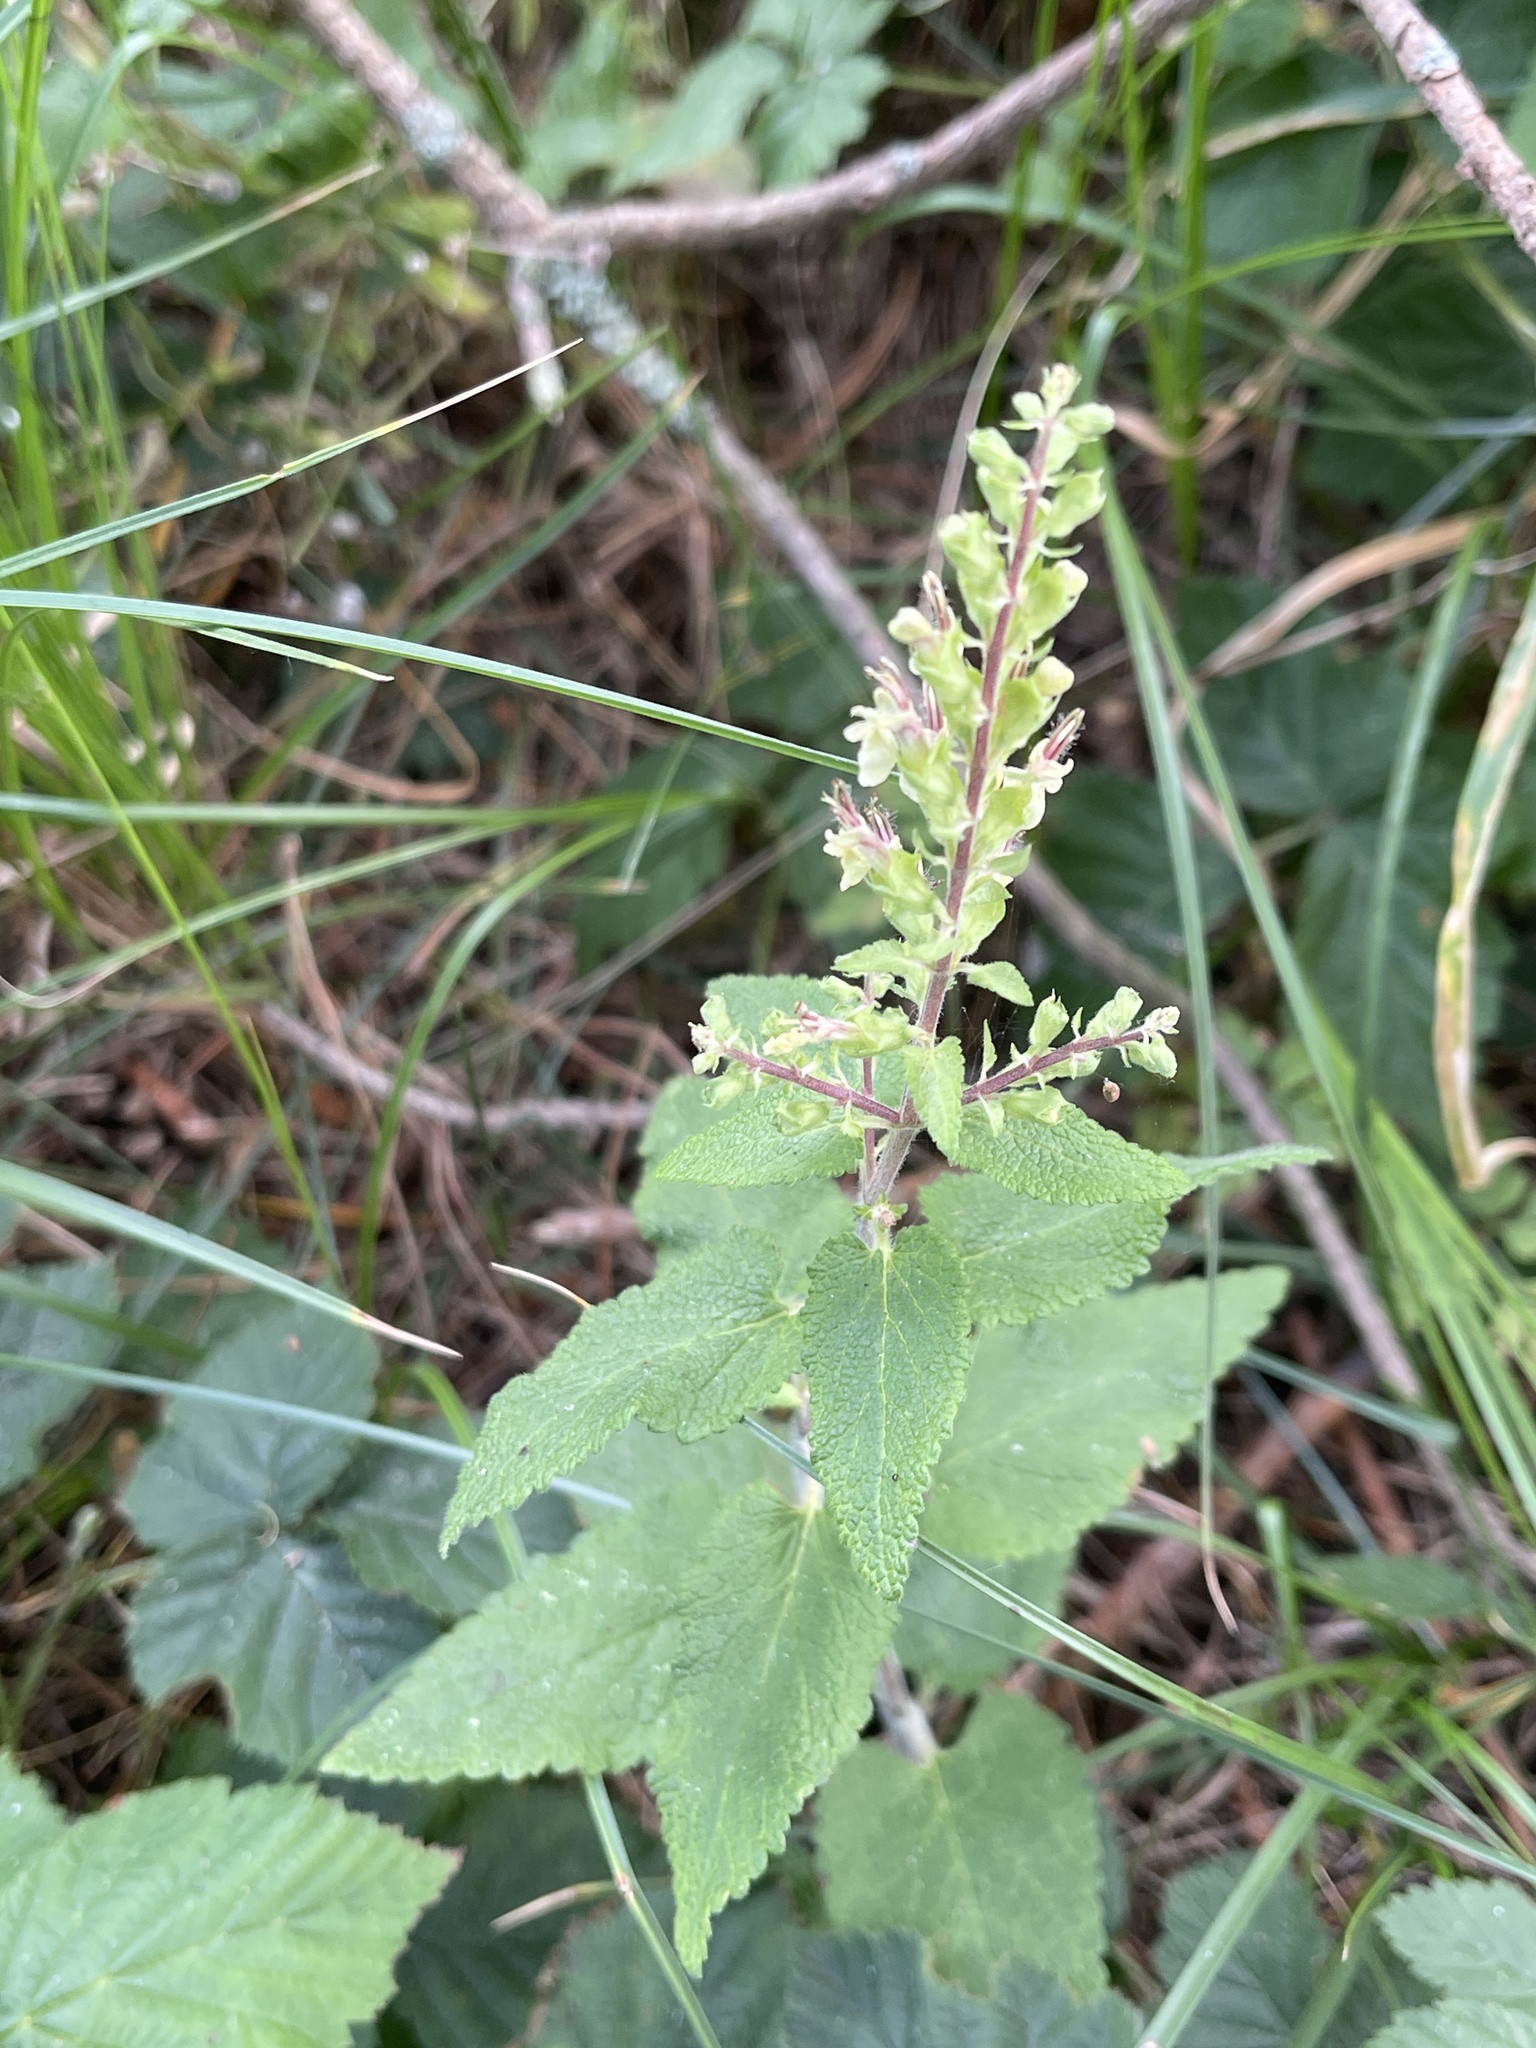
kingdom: Plantae
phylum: Tracheophyta
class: Magnoliopsida
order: Lamiales
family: Lamiaceae
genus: Teucrium
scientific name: Teucrium scorodonia
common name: Woodland germander
